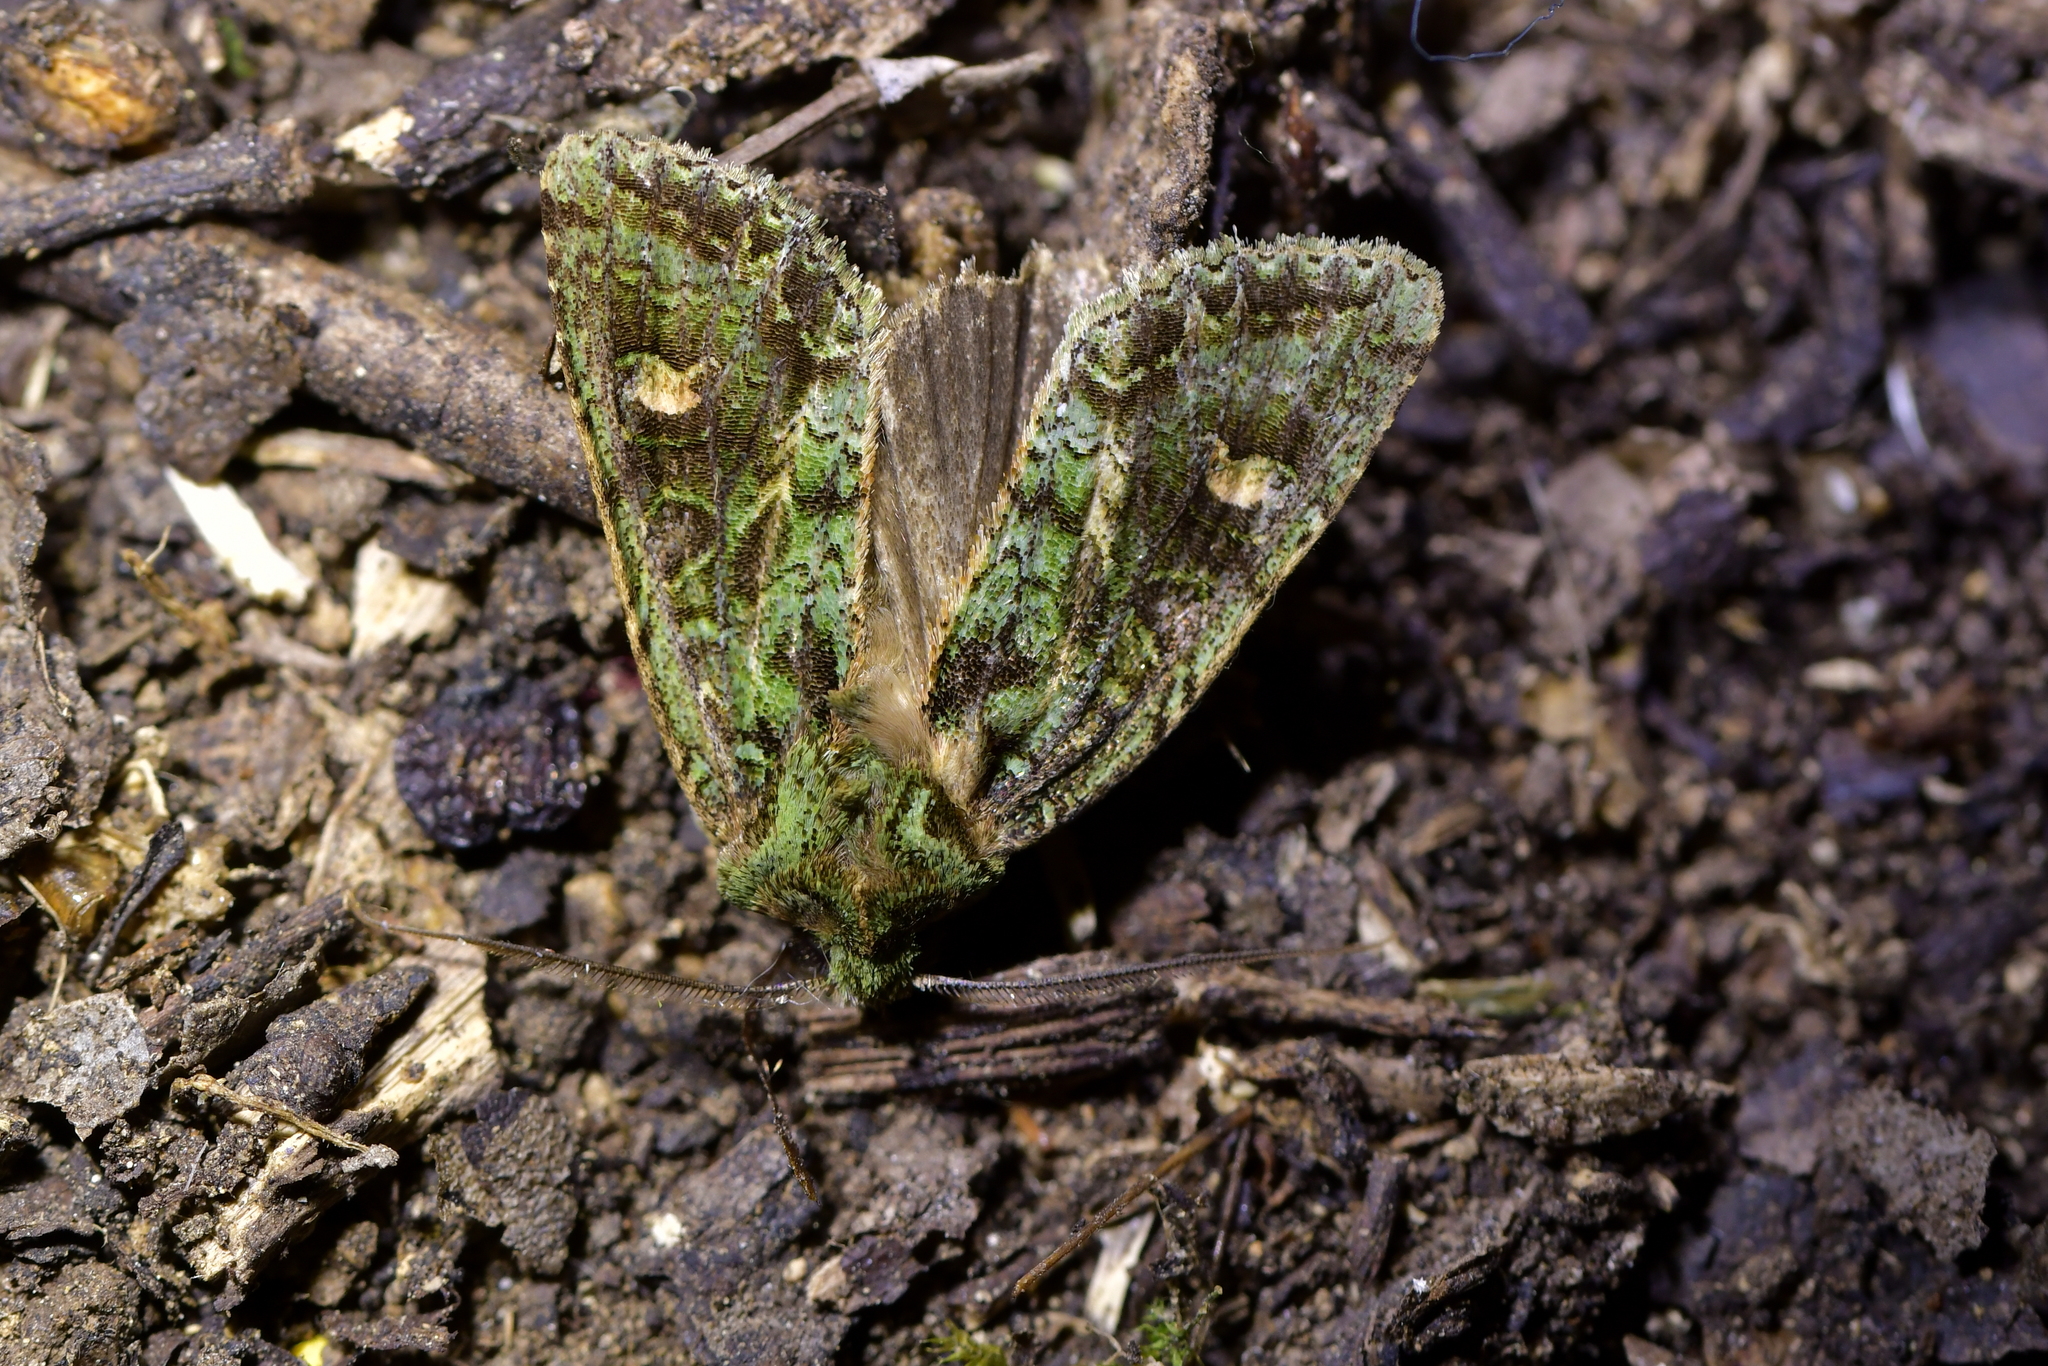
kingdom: Animalia
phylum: Arthropoda
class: Insecta
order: Lepidoptera
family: Noctuidae
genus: Ichneutica
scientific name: Ichneutica
